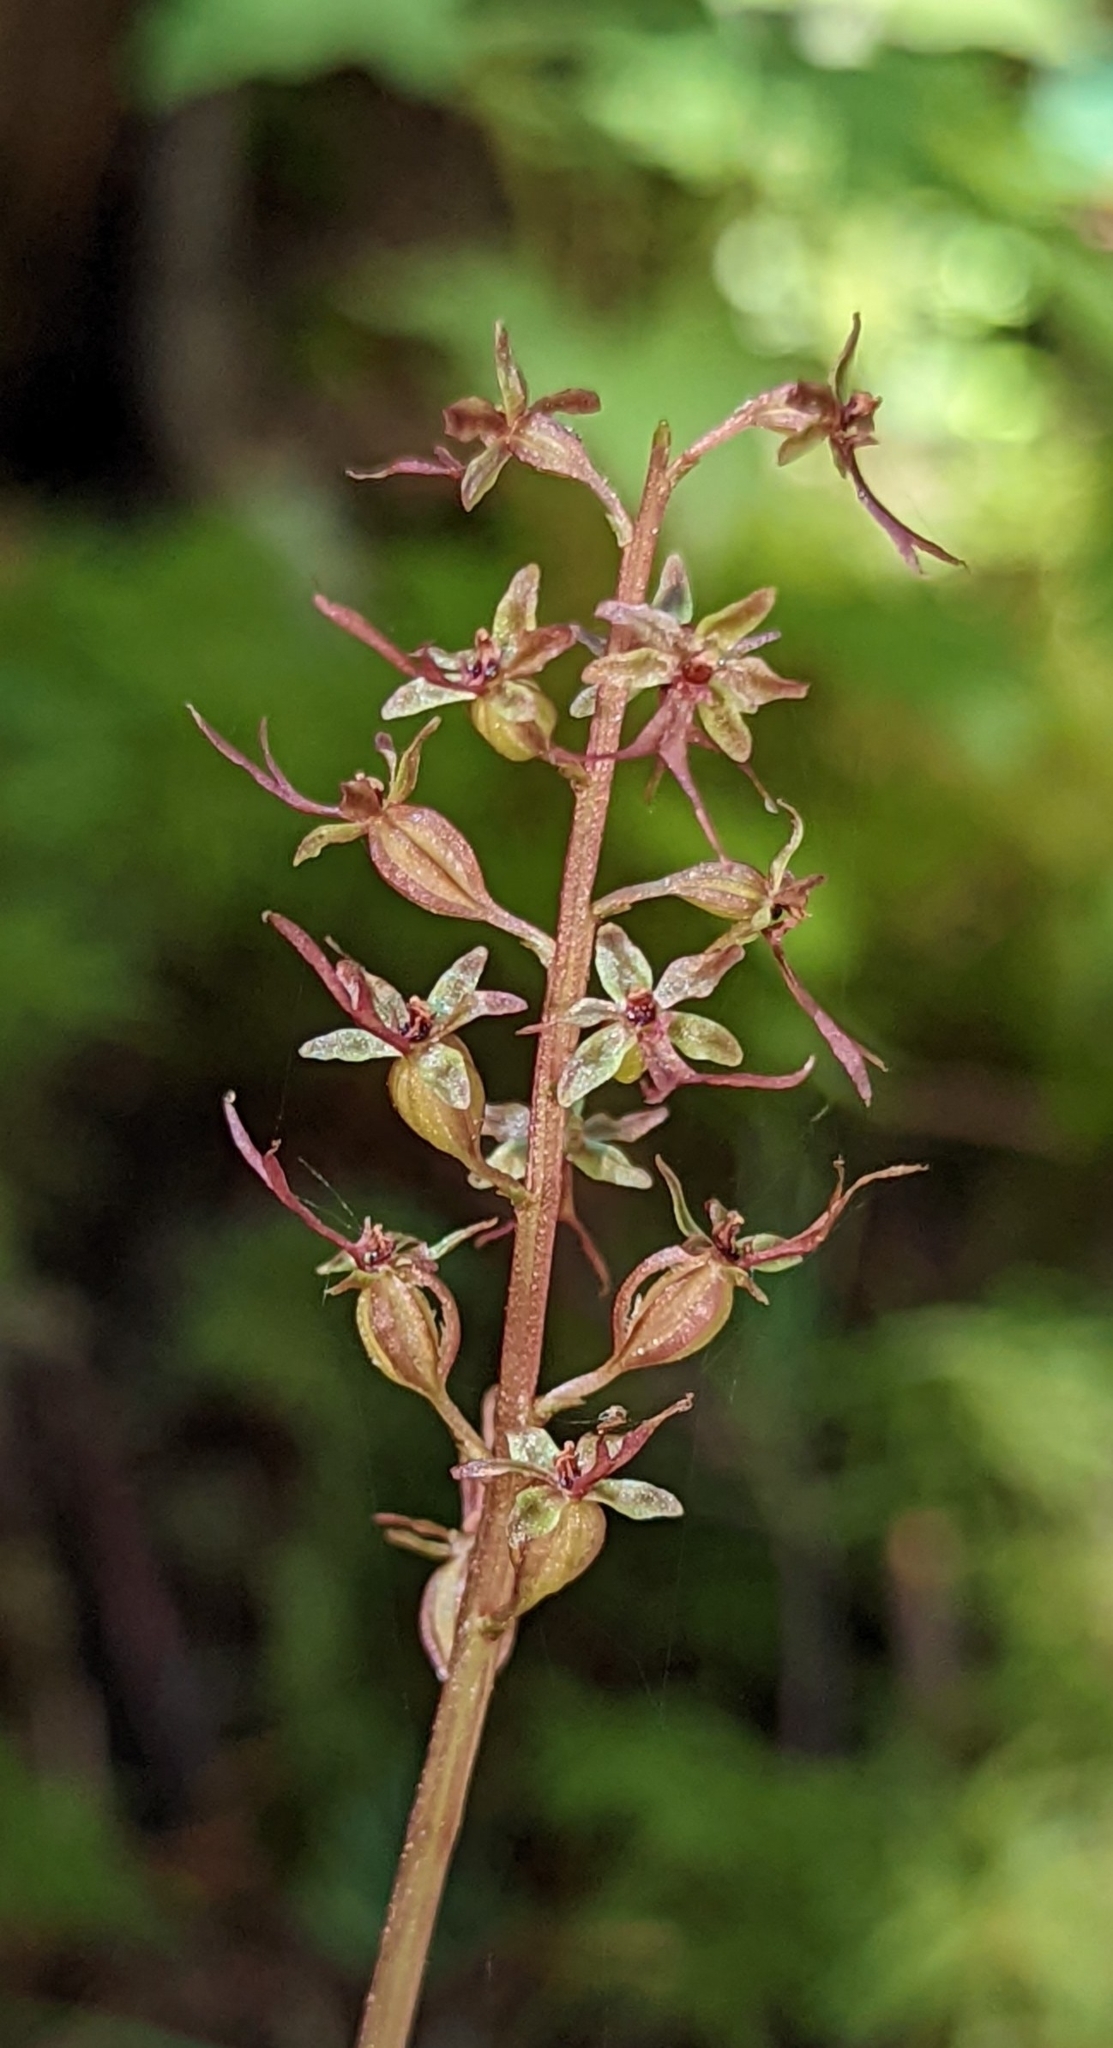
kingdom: Plantae
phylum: Tracheophyta
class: Liliopsida
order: Asparagales
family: Orchidaceae
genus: Neottia
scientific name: Neottia cordata
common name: Lesser twayblade
